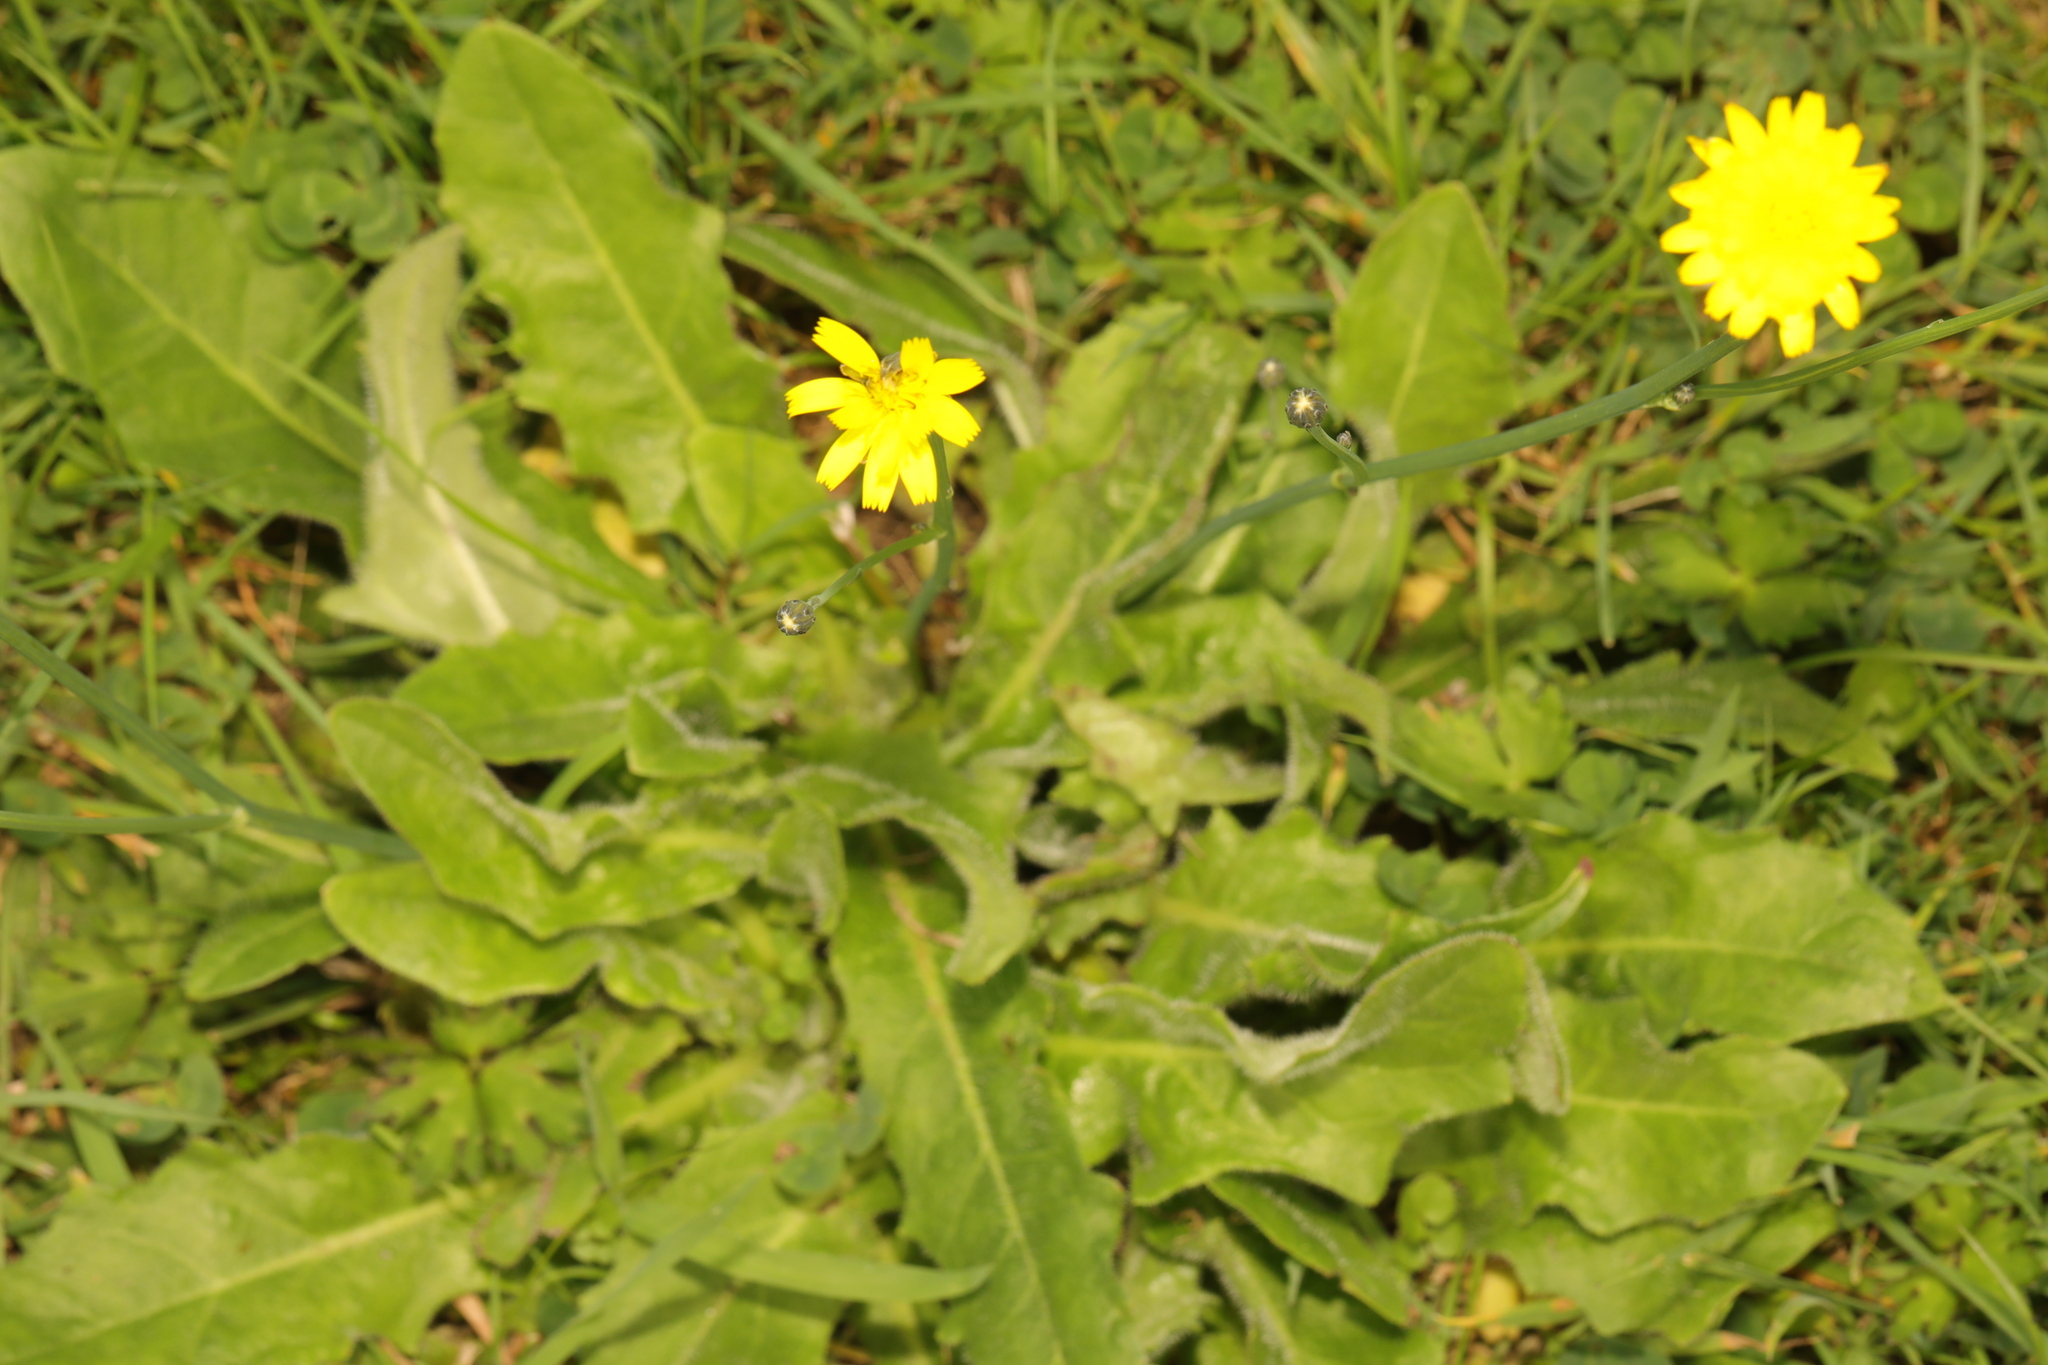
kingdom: Plantae
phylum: Tracheophyta
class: Magnoliopsida
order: Asterales
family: Asteraceae
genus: Hypochaeris
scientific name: Hypochaeris radicata
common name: Flatweed
